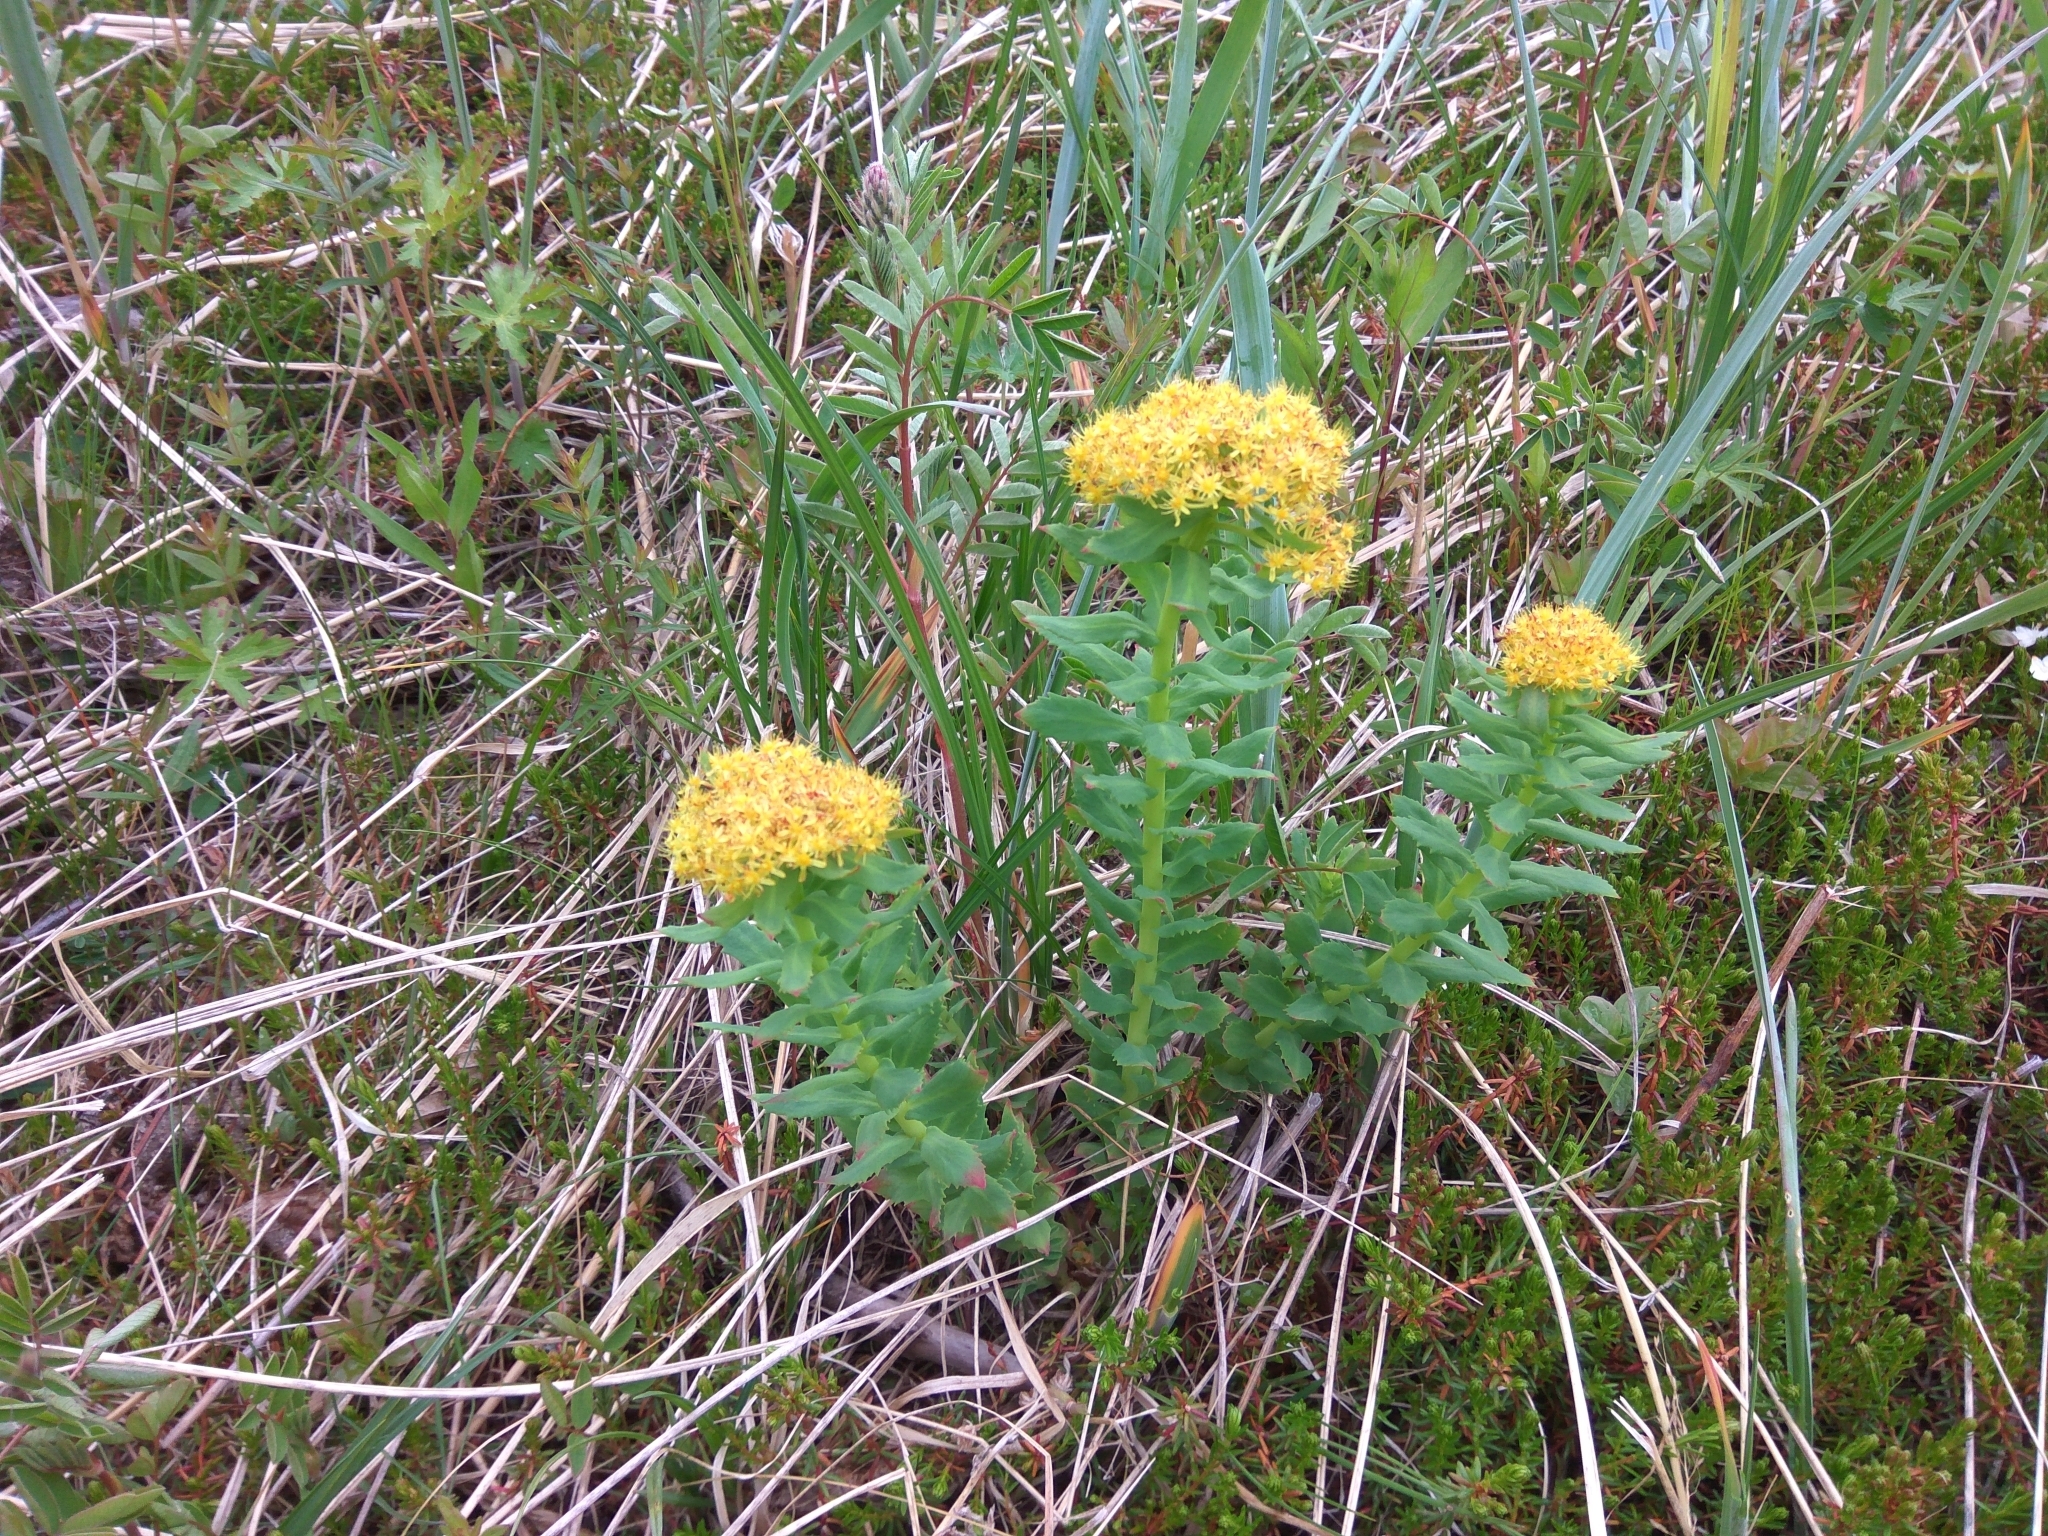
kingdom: Plantae
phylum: Tracheophyta
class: Magnoliopsida
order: Saxifragales
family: Crassulaceae
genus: Rhodiola
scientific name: Rhodiola rosea
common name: Roseroot
